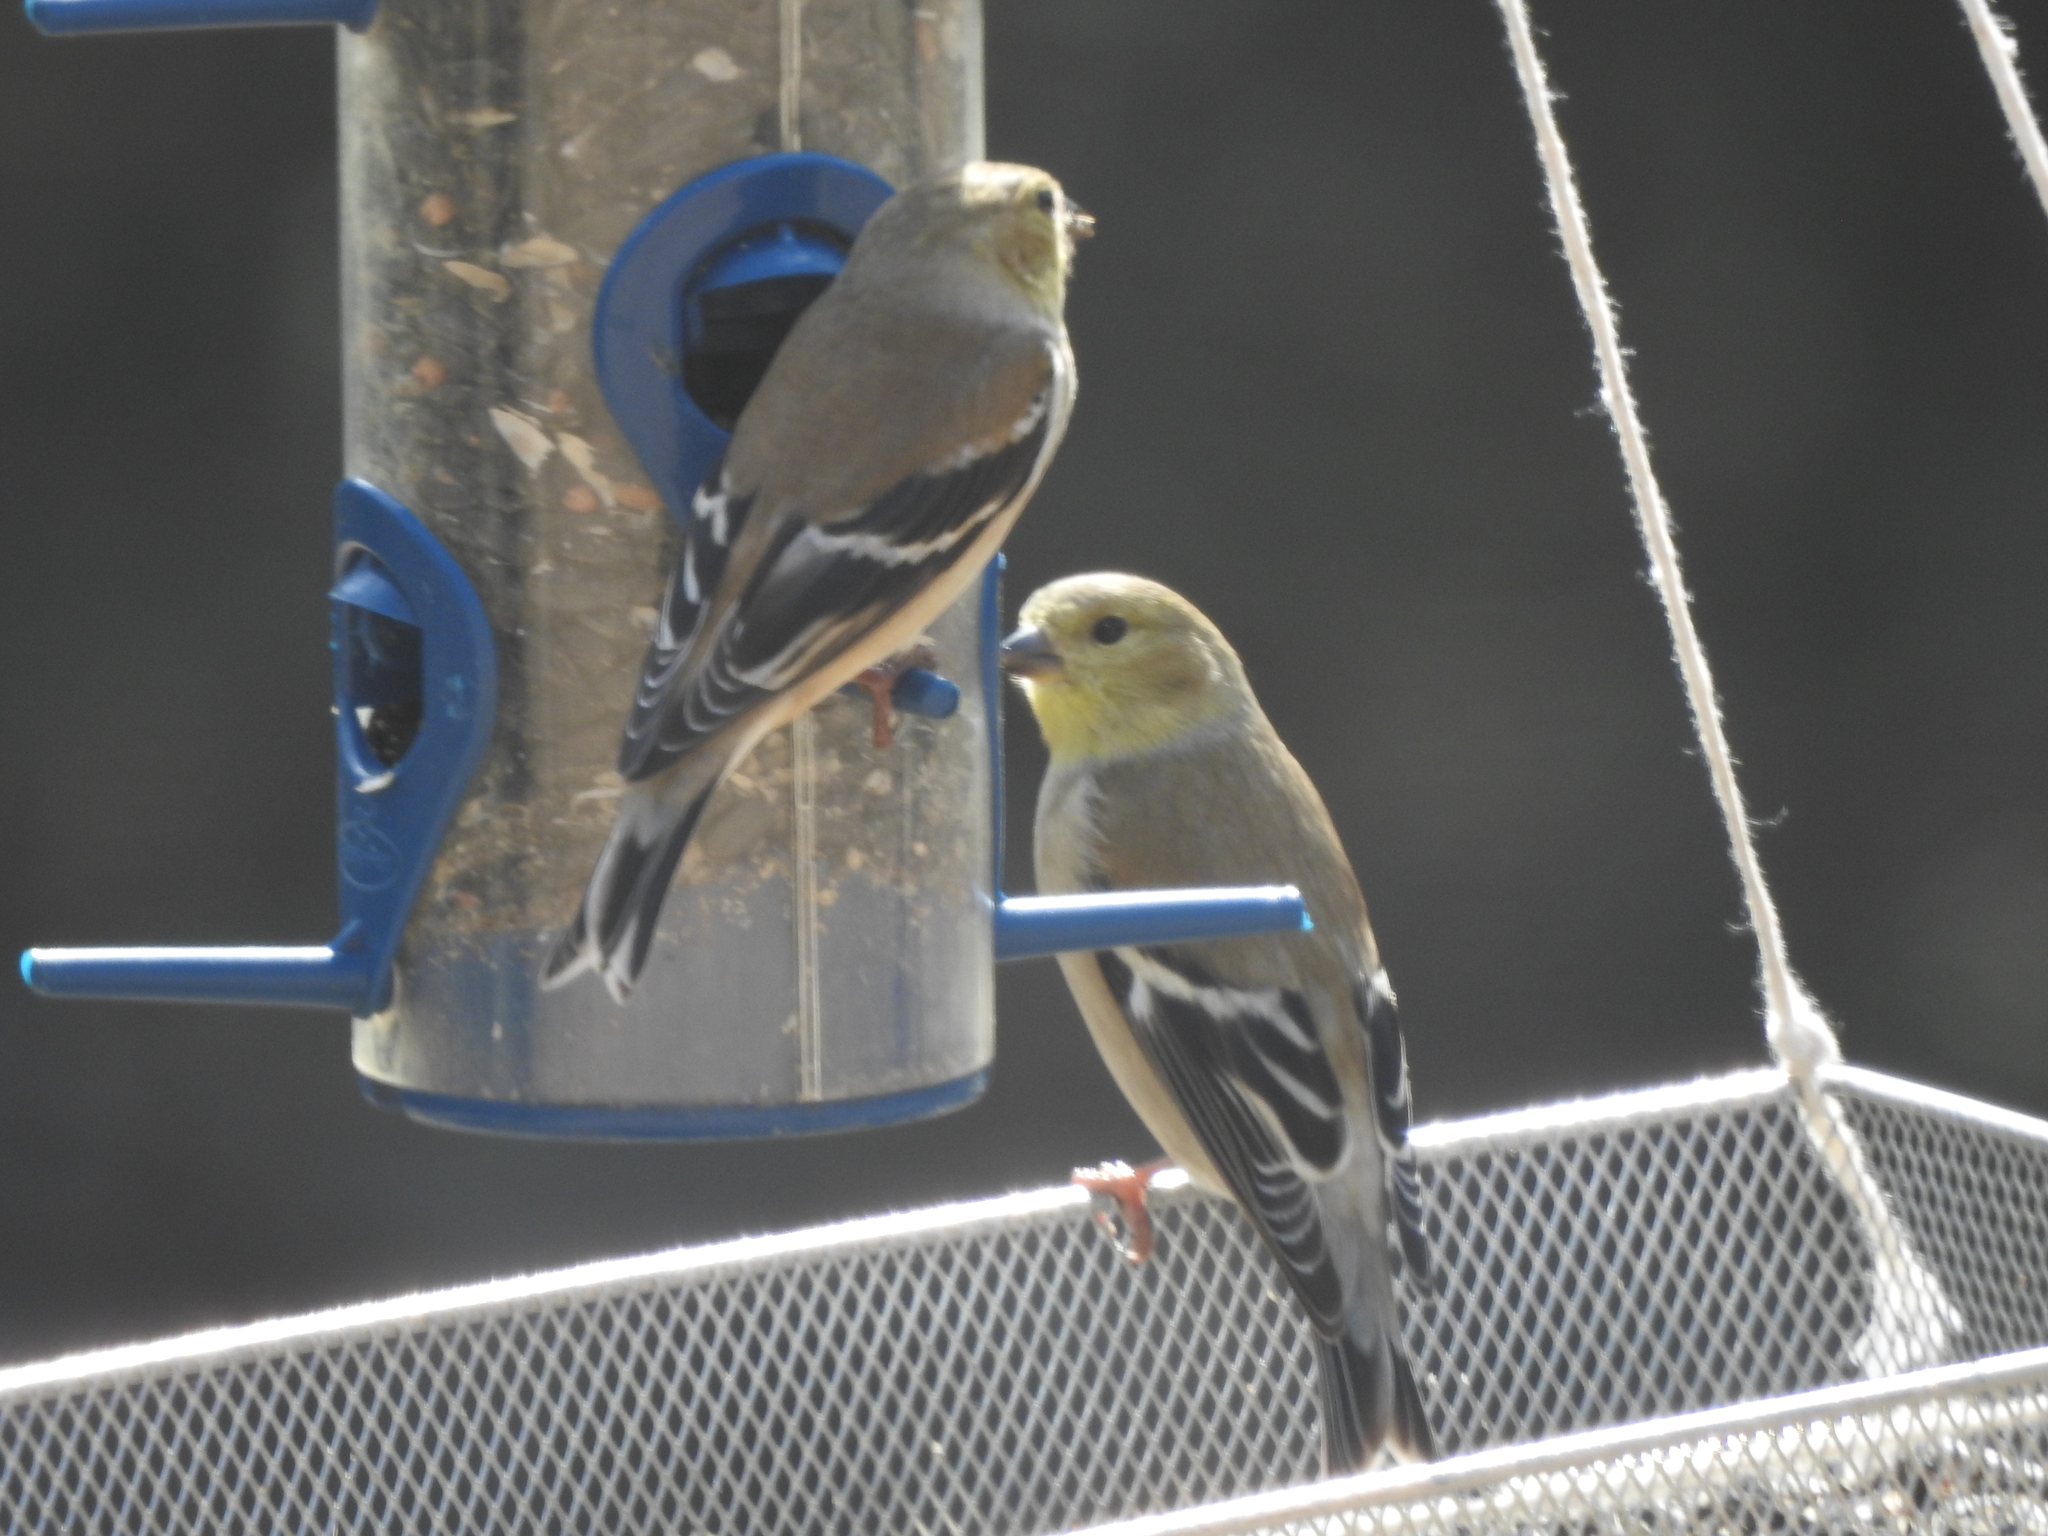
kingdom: Animalia
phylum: Chordata
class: Aves
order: Passeriformes
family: Fringillidae
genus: Spinus
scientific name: Spinus tristis
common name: American goldfinch
